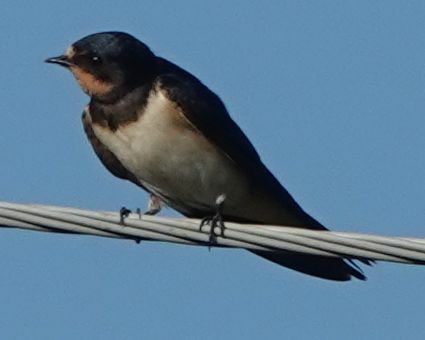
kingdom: Animalia
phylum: Chordata
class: Aves
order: Passeriformes
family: Hirundinidae
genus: Hirundo
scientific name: Hirundo rustica
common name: Barn swallow
